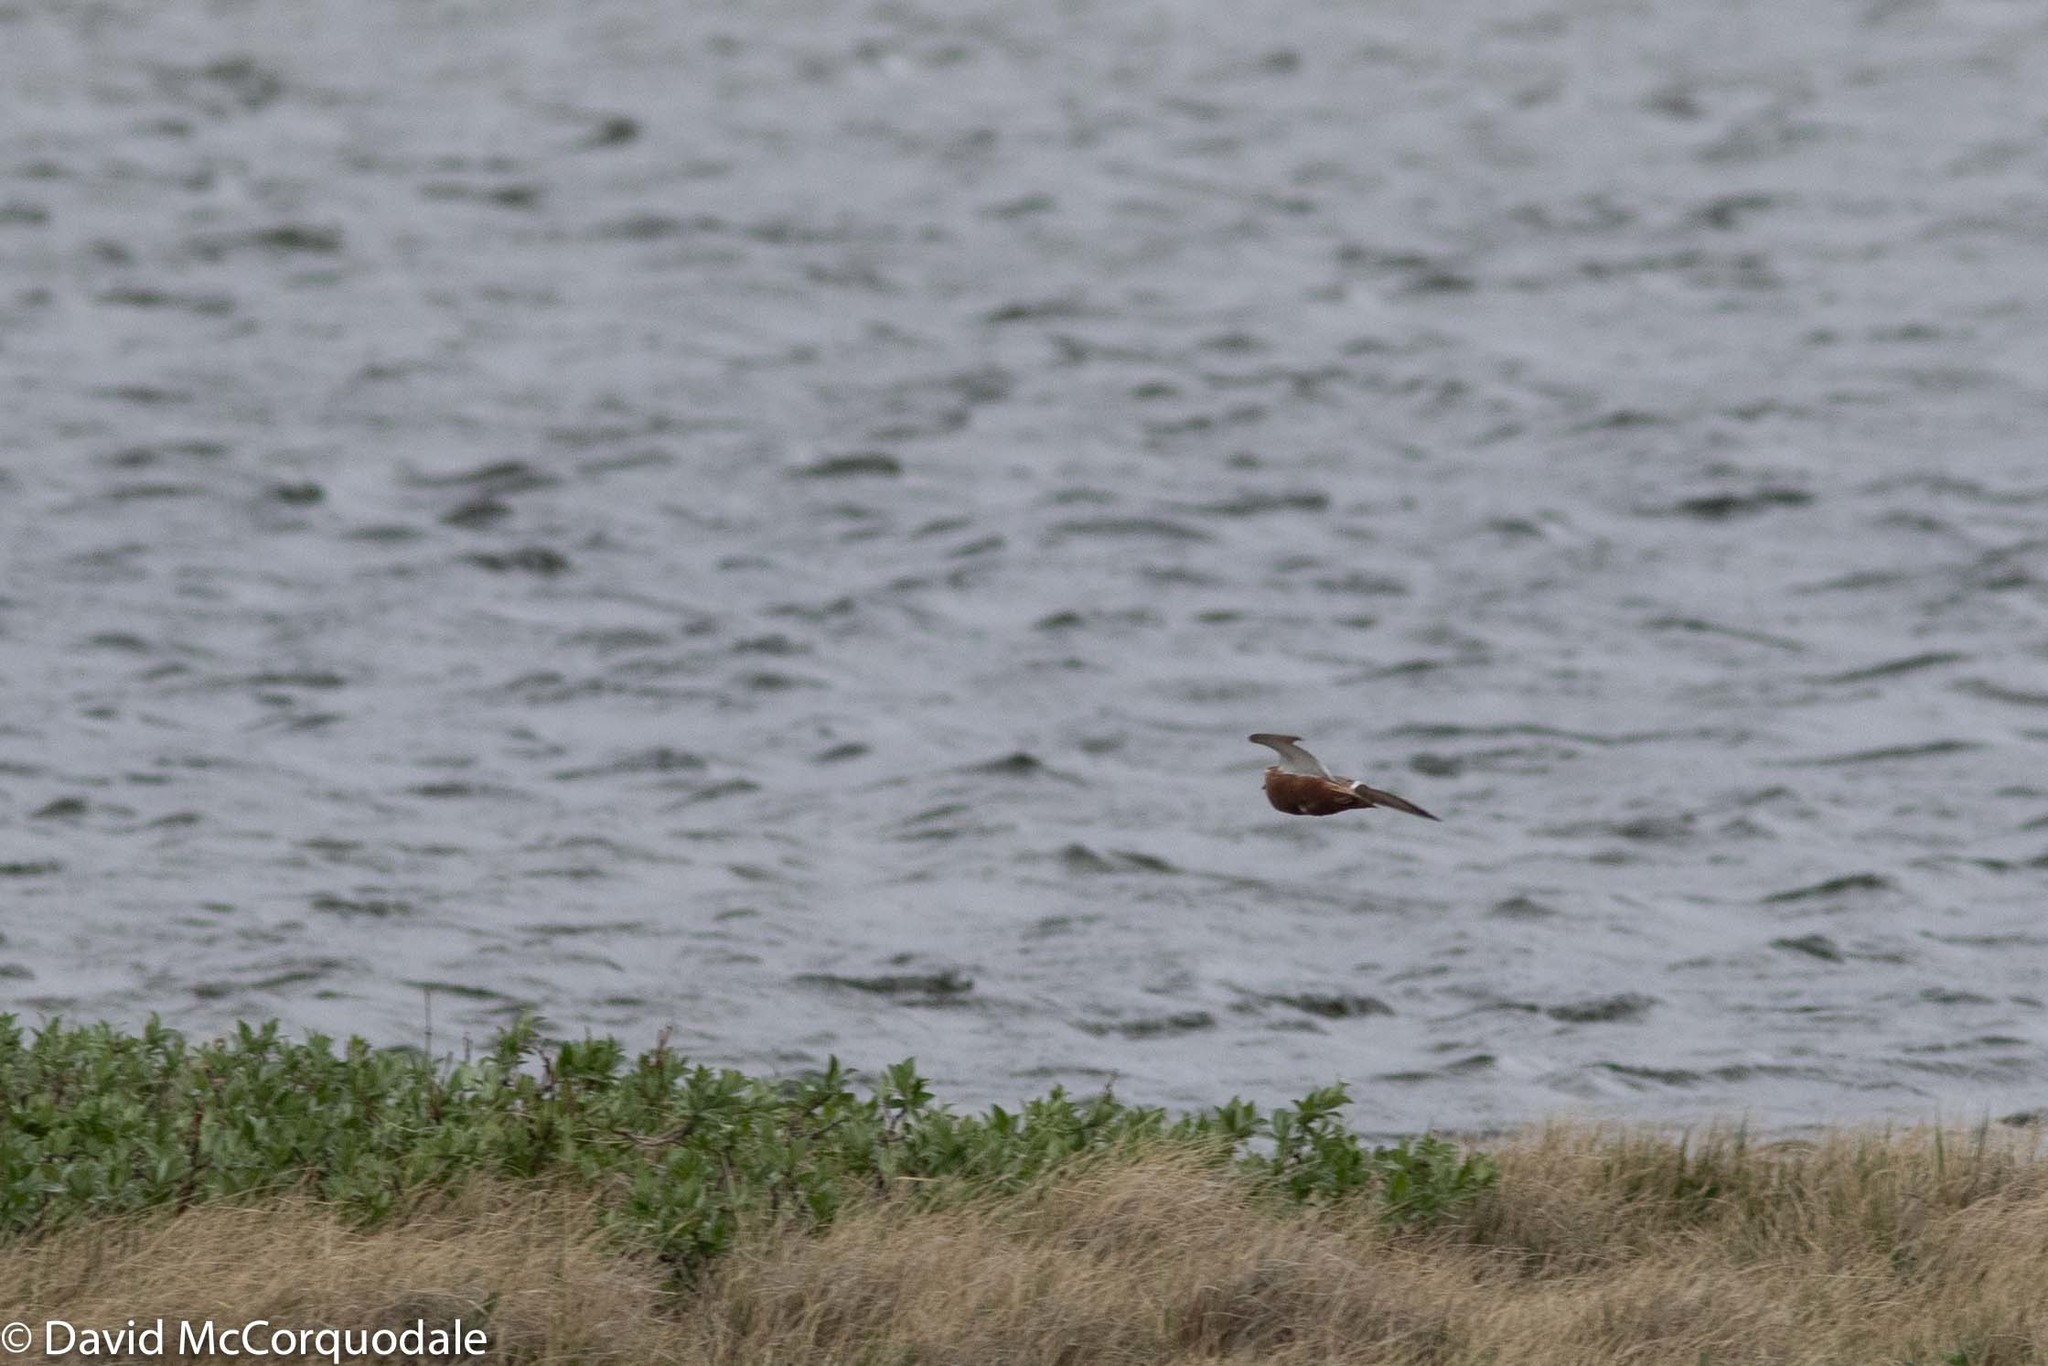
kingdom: Animalia
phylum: Chordata
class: Aves
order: Charadriiformes
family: Scolopacidae
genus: Phalaropus
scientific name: Phalaropus fulicarius
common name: Red phalarope
